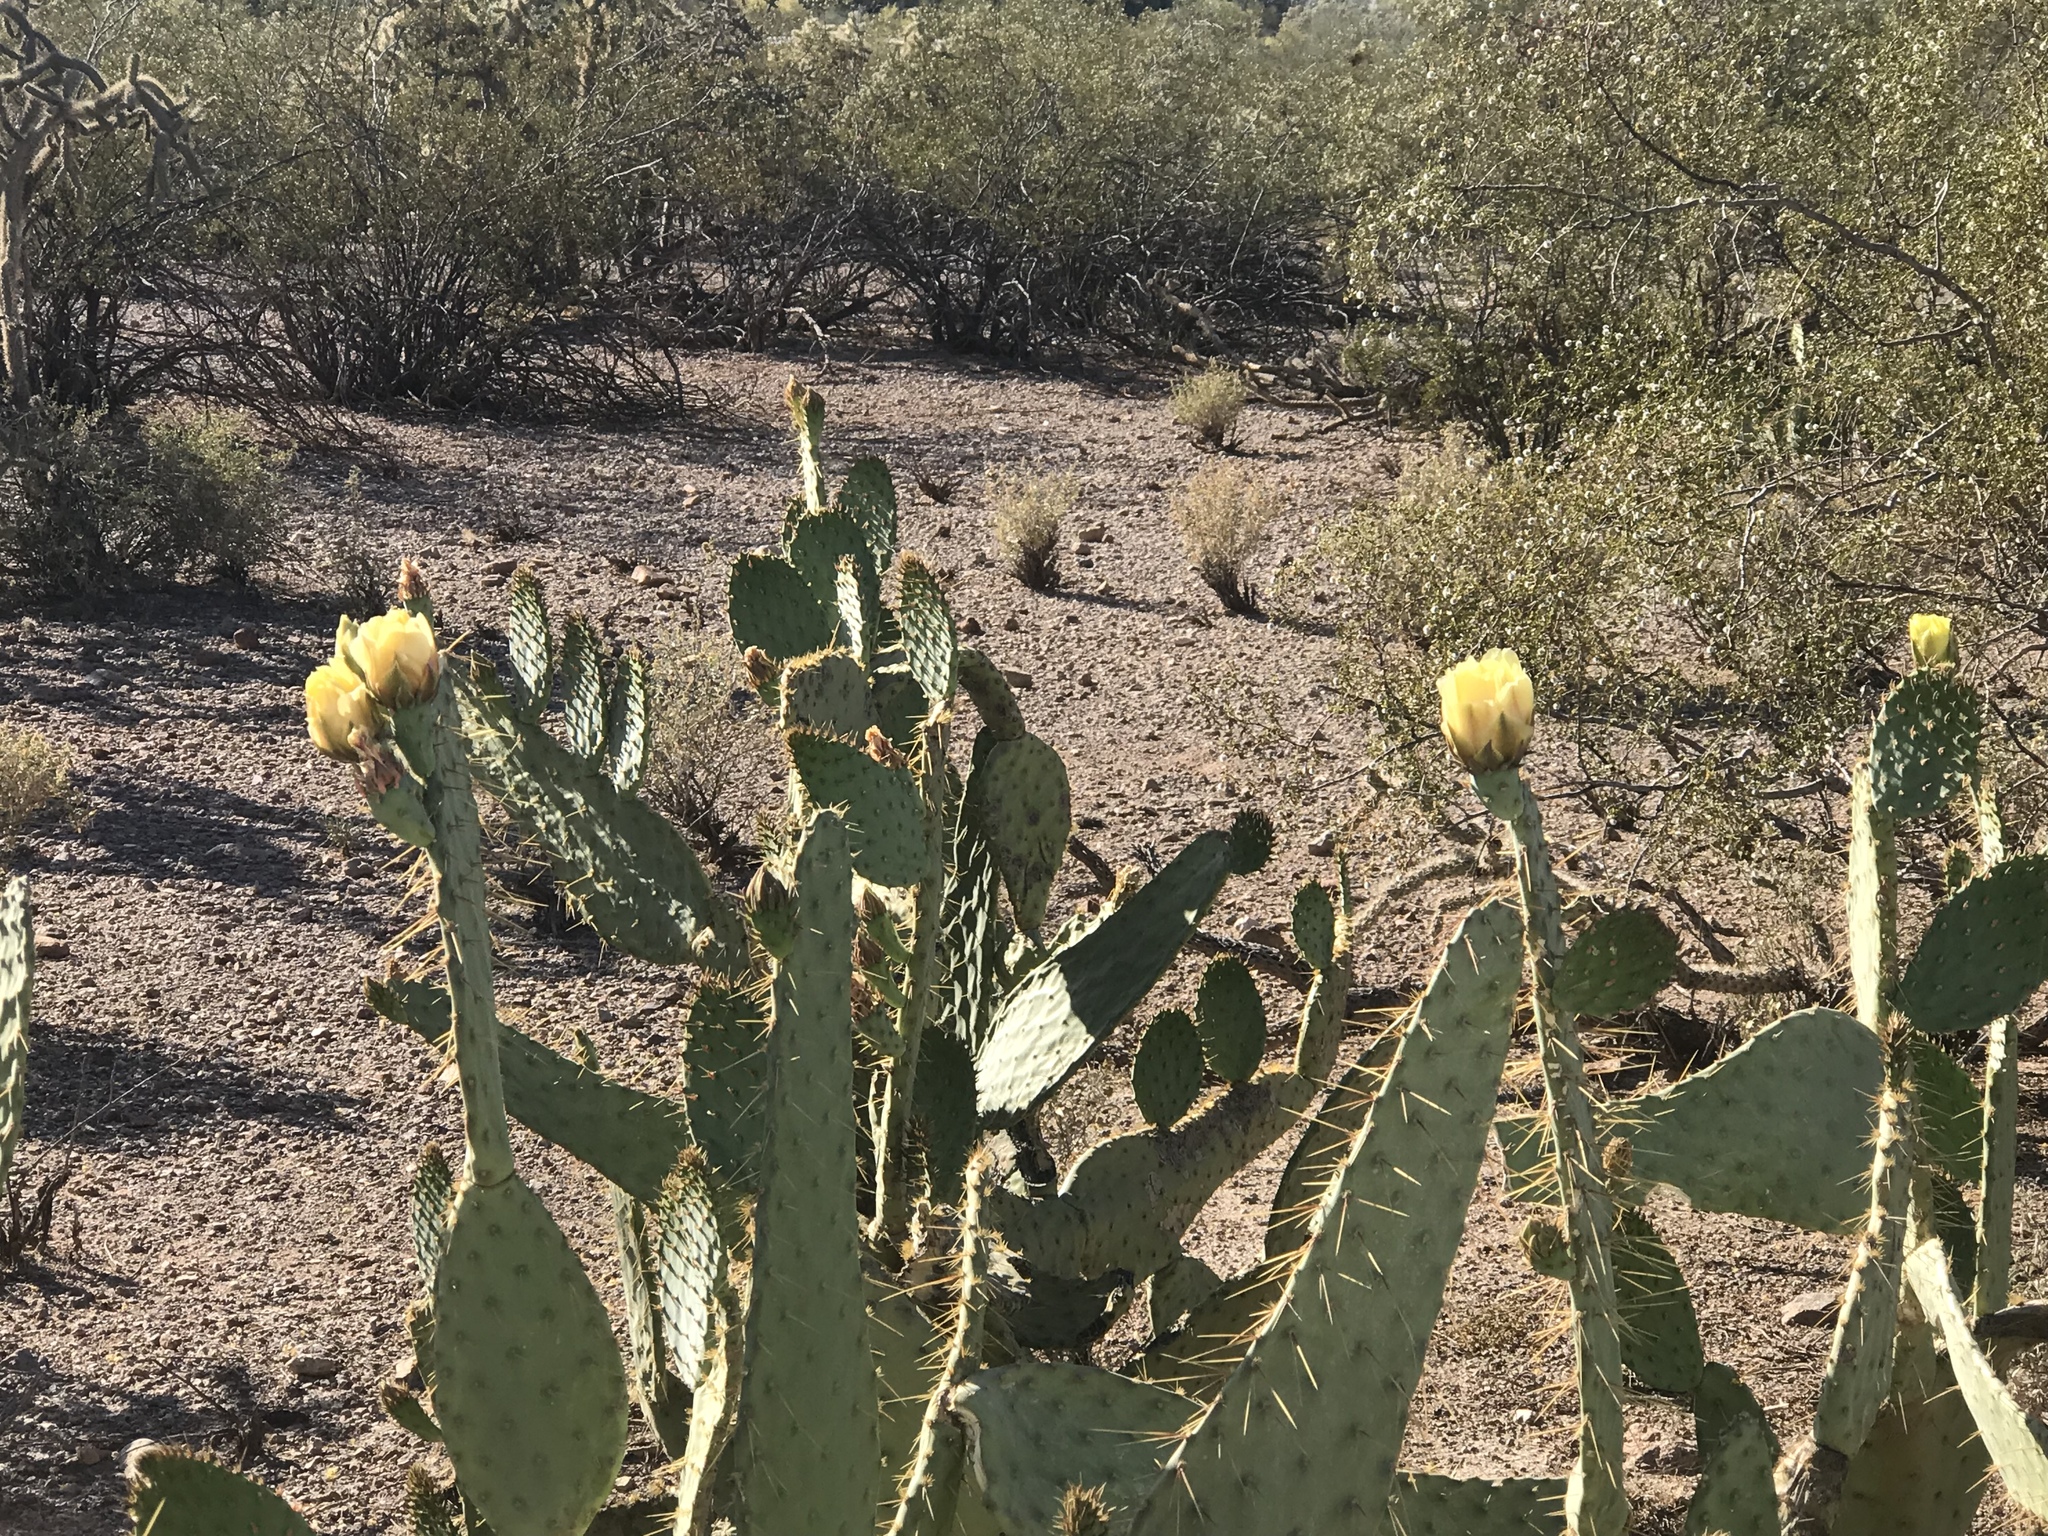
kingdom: Plantae
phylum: Tracheophyta
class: Magnoliopsida
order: Caryophyllales
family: Cactaceae
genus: Opuntia
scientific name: Opuntia engelmannii
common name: Cactus-apple
